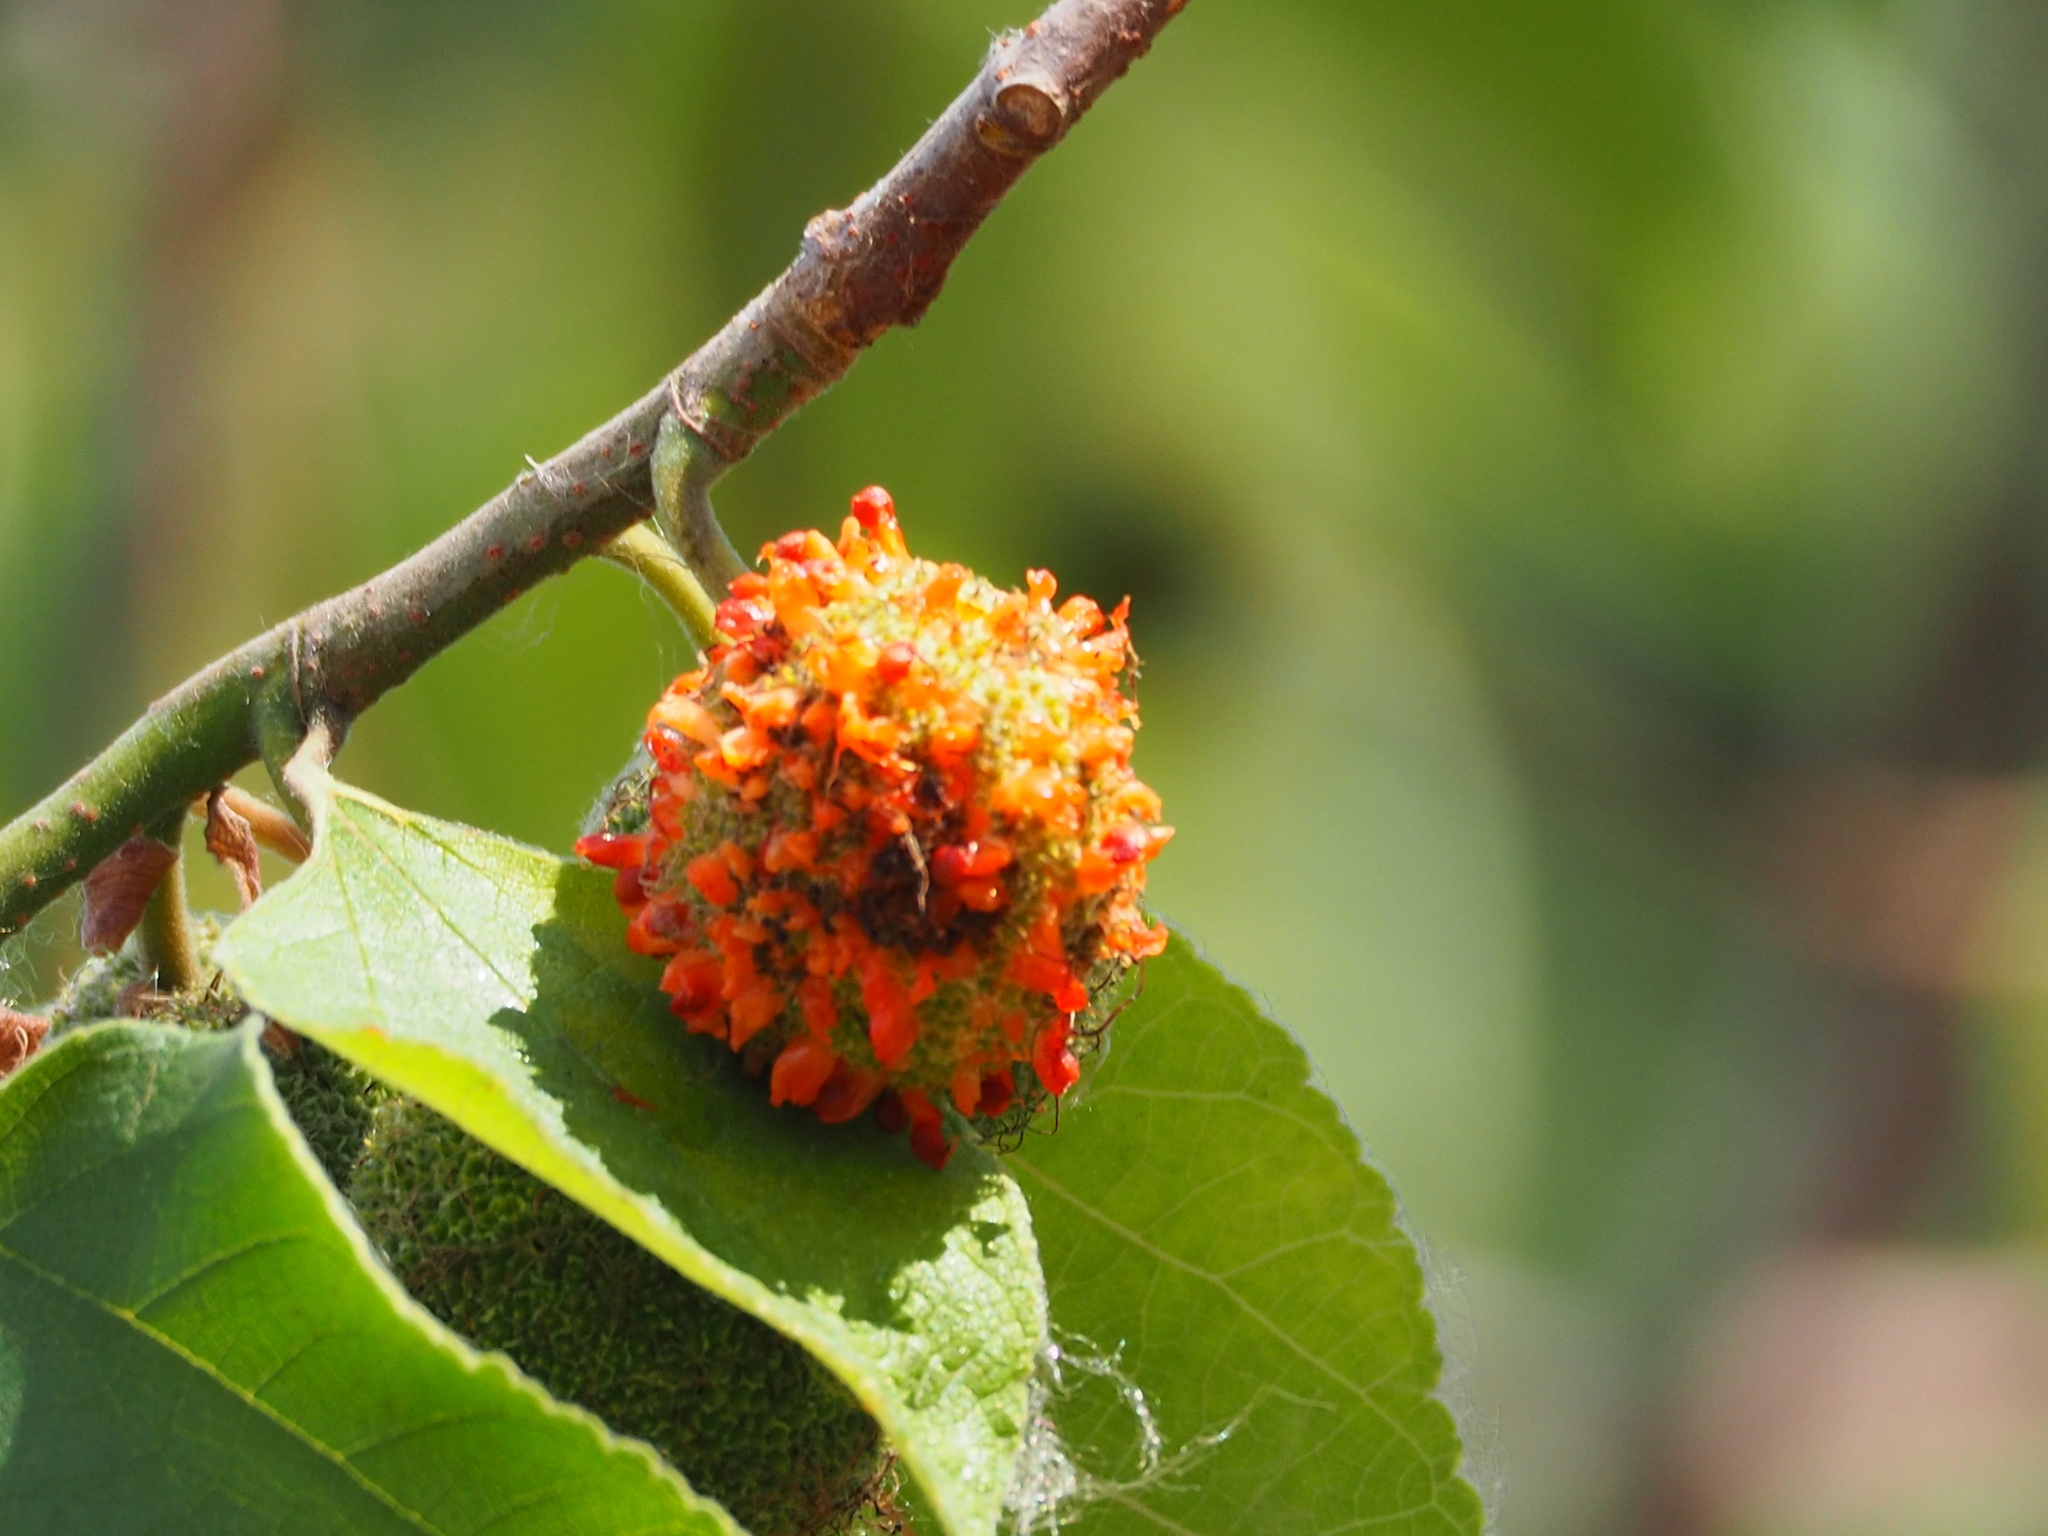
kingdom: Plantae
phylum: Tracheophyta
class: Magnoliopsida
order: Rosales
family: Moraceae
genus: Broussonetia
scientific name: Broussonetia papyrifera
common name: Paper mulberry
